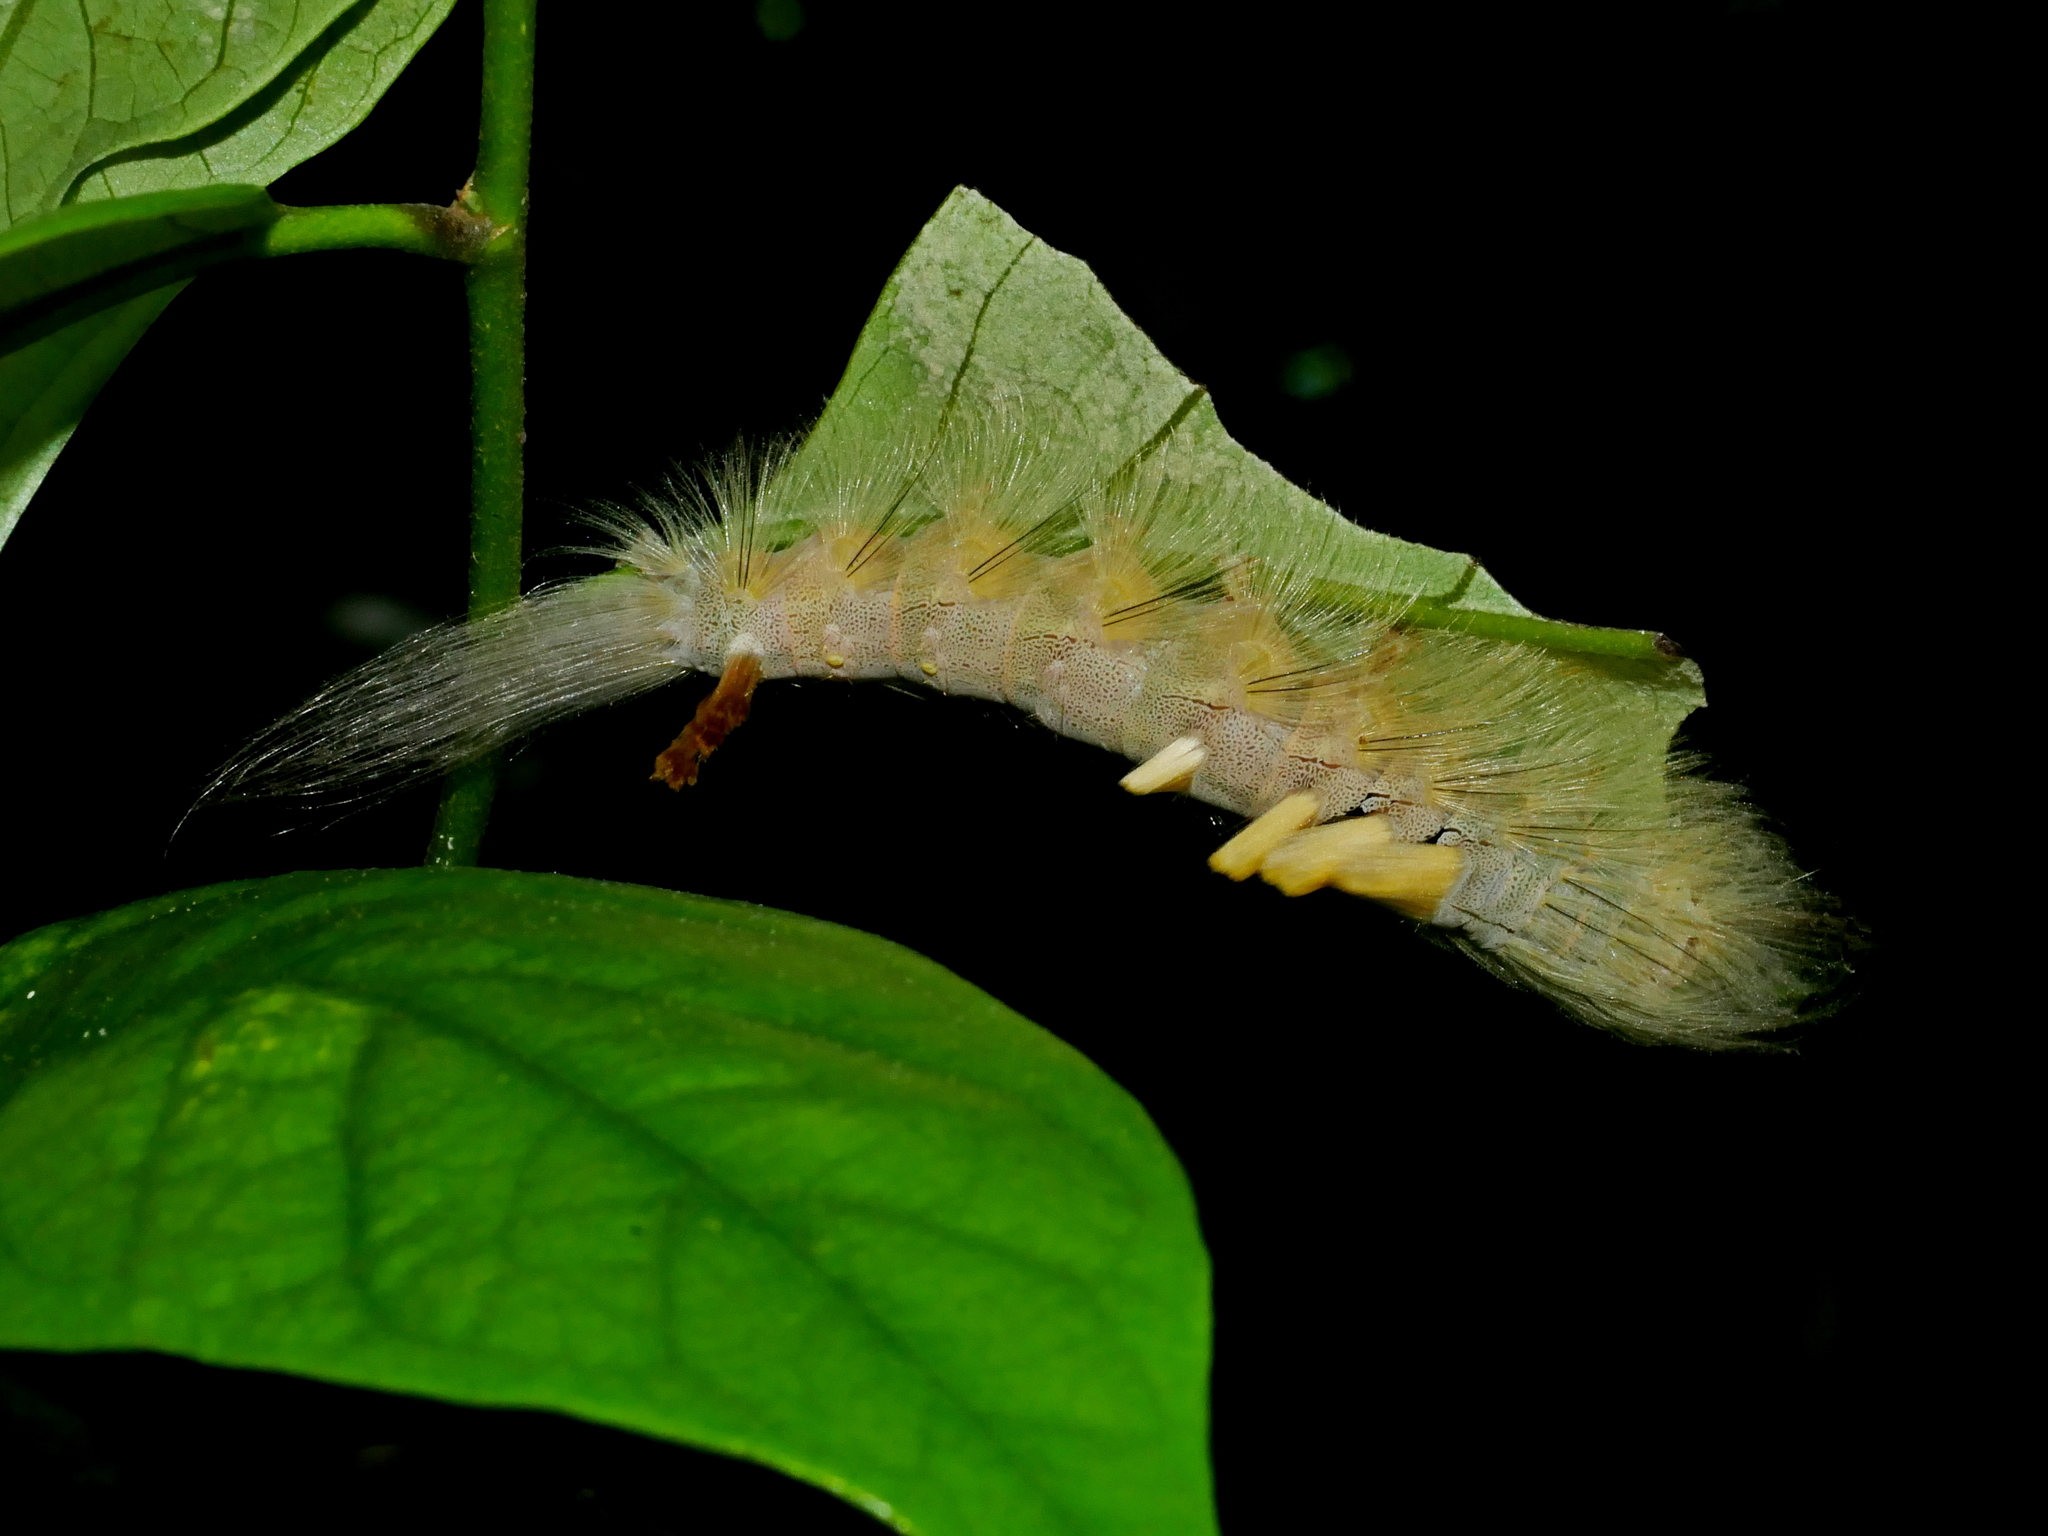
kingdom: Animalia
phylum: Arthropoda
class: Insecta
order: Lepidoptera
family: Erebidae
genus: Olene
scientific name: Olene dudgeoni
